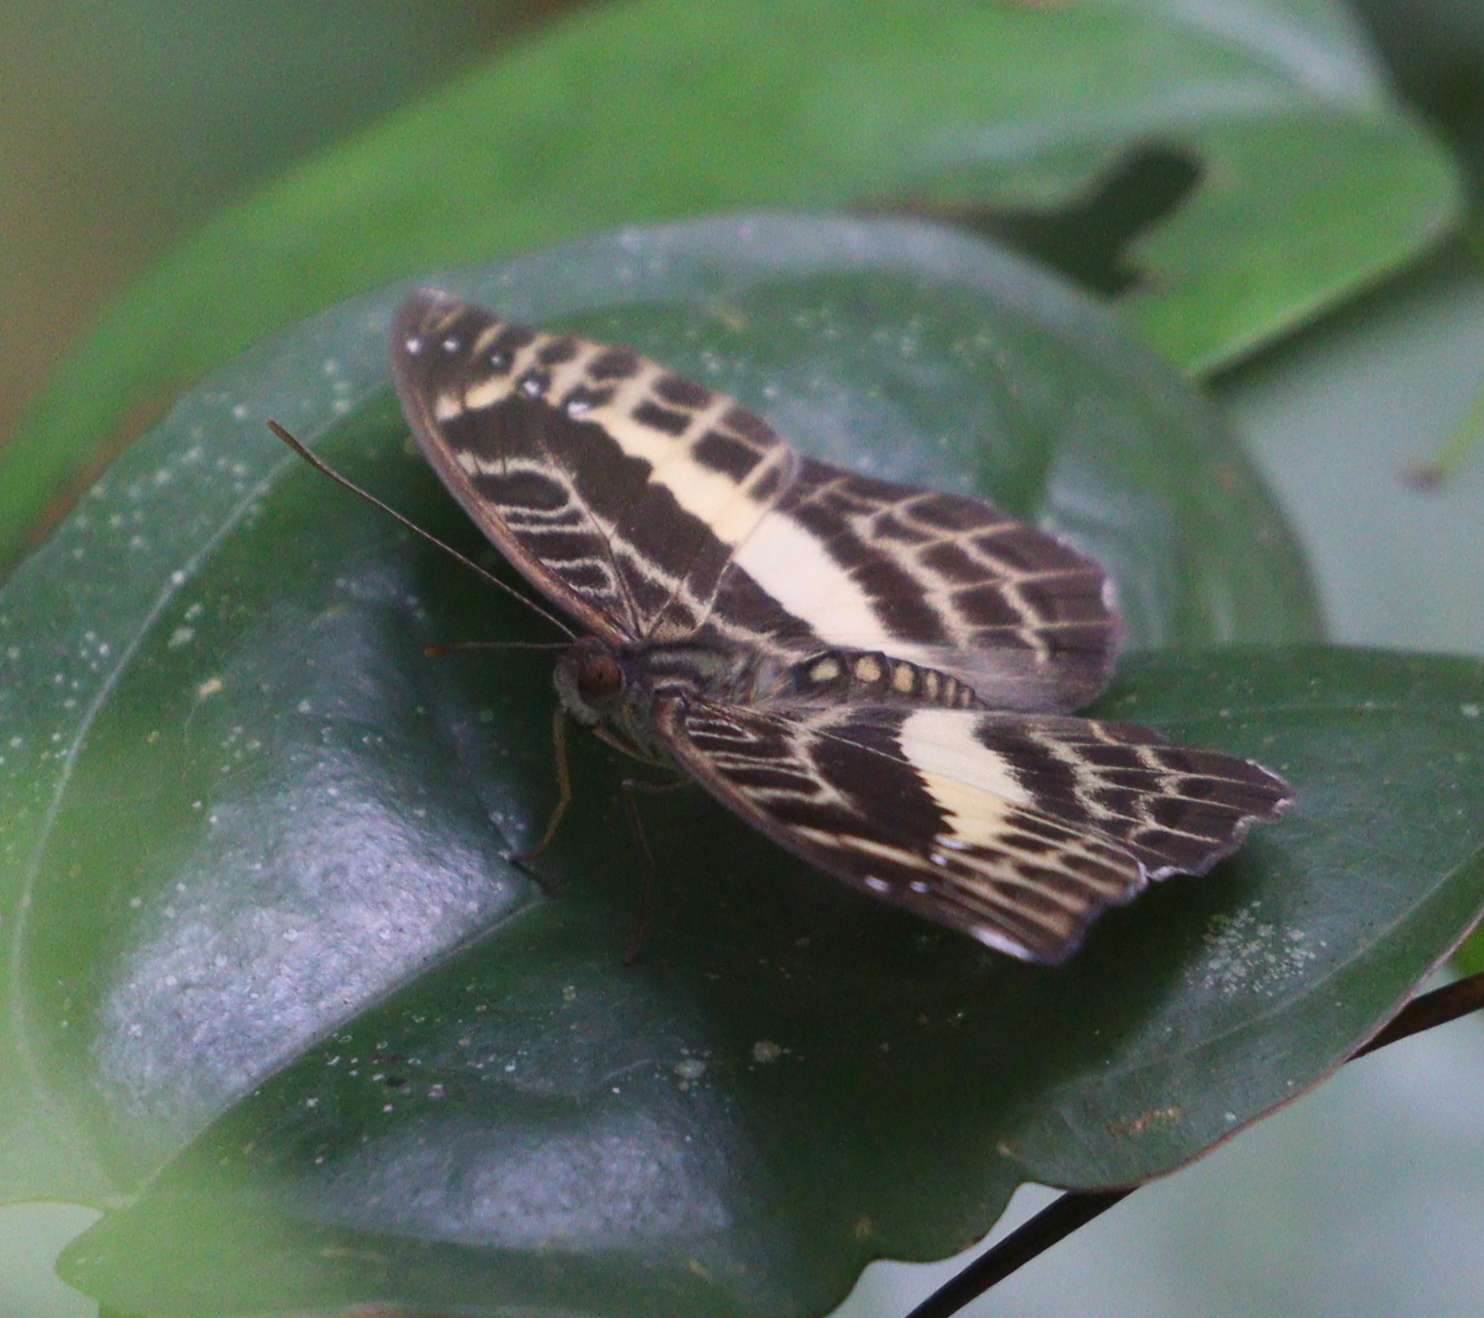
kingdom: Animalia
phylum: Arthropoda
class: Insecta
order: Lepidoptera
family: Nymphalidae
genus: Cynandra
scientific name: Cynandra opis
